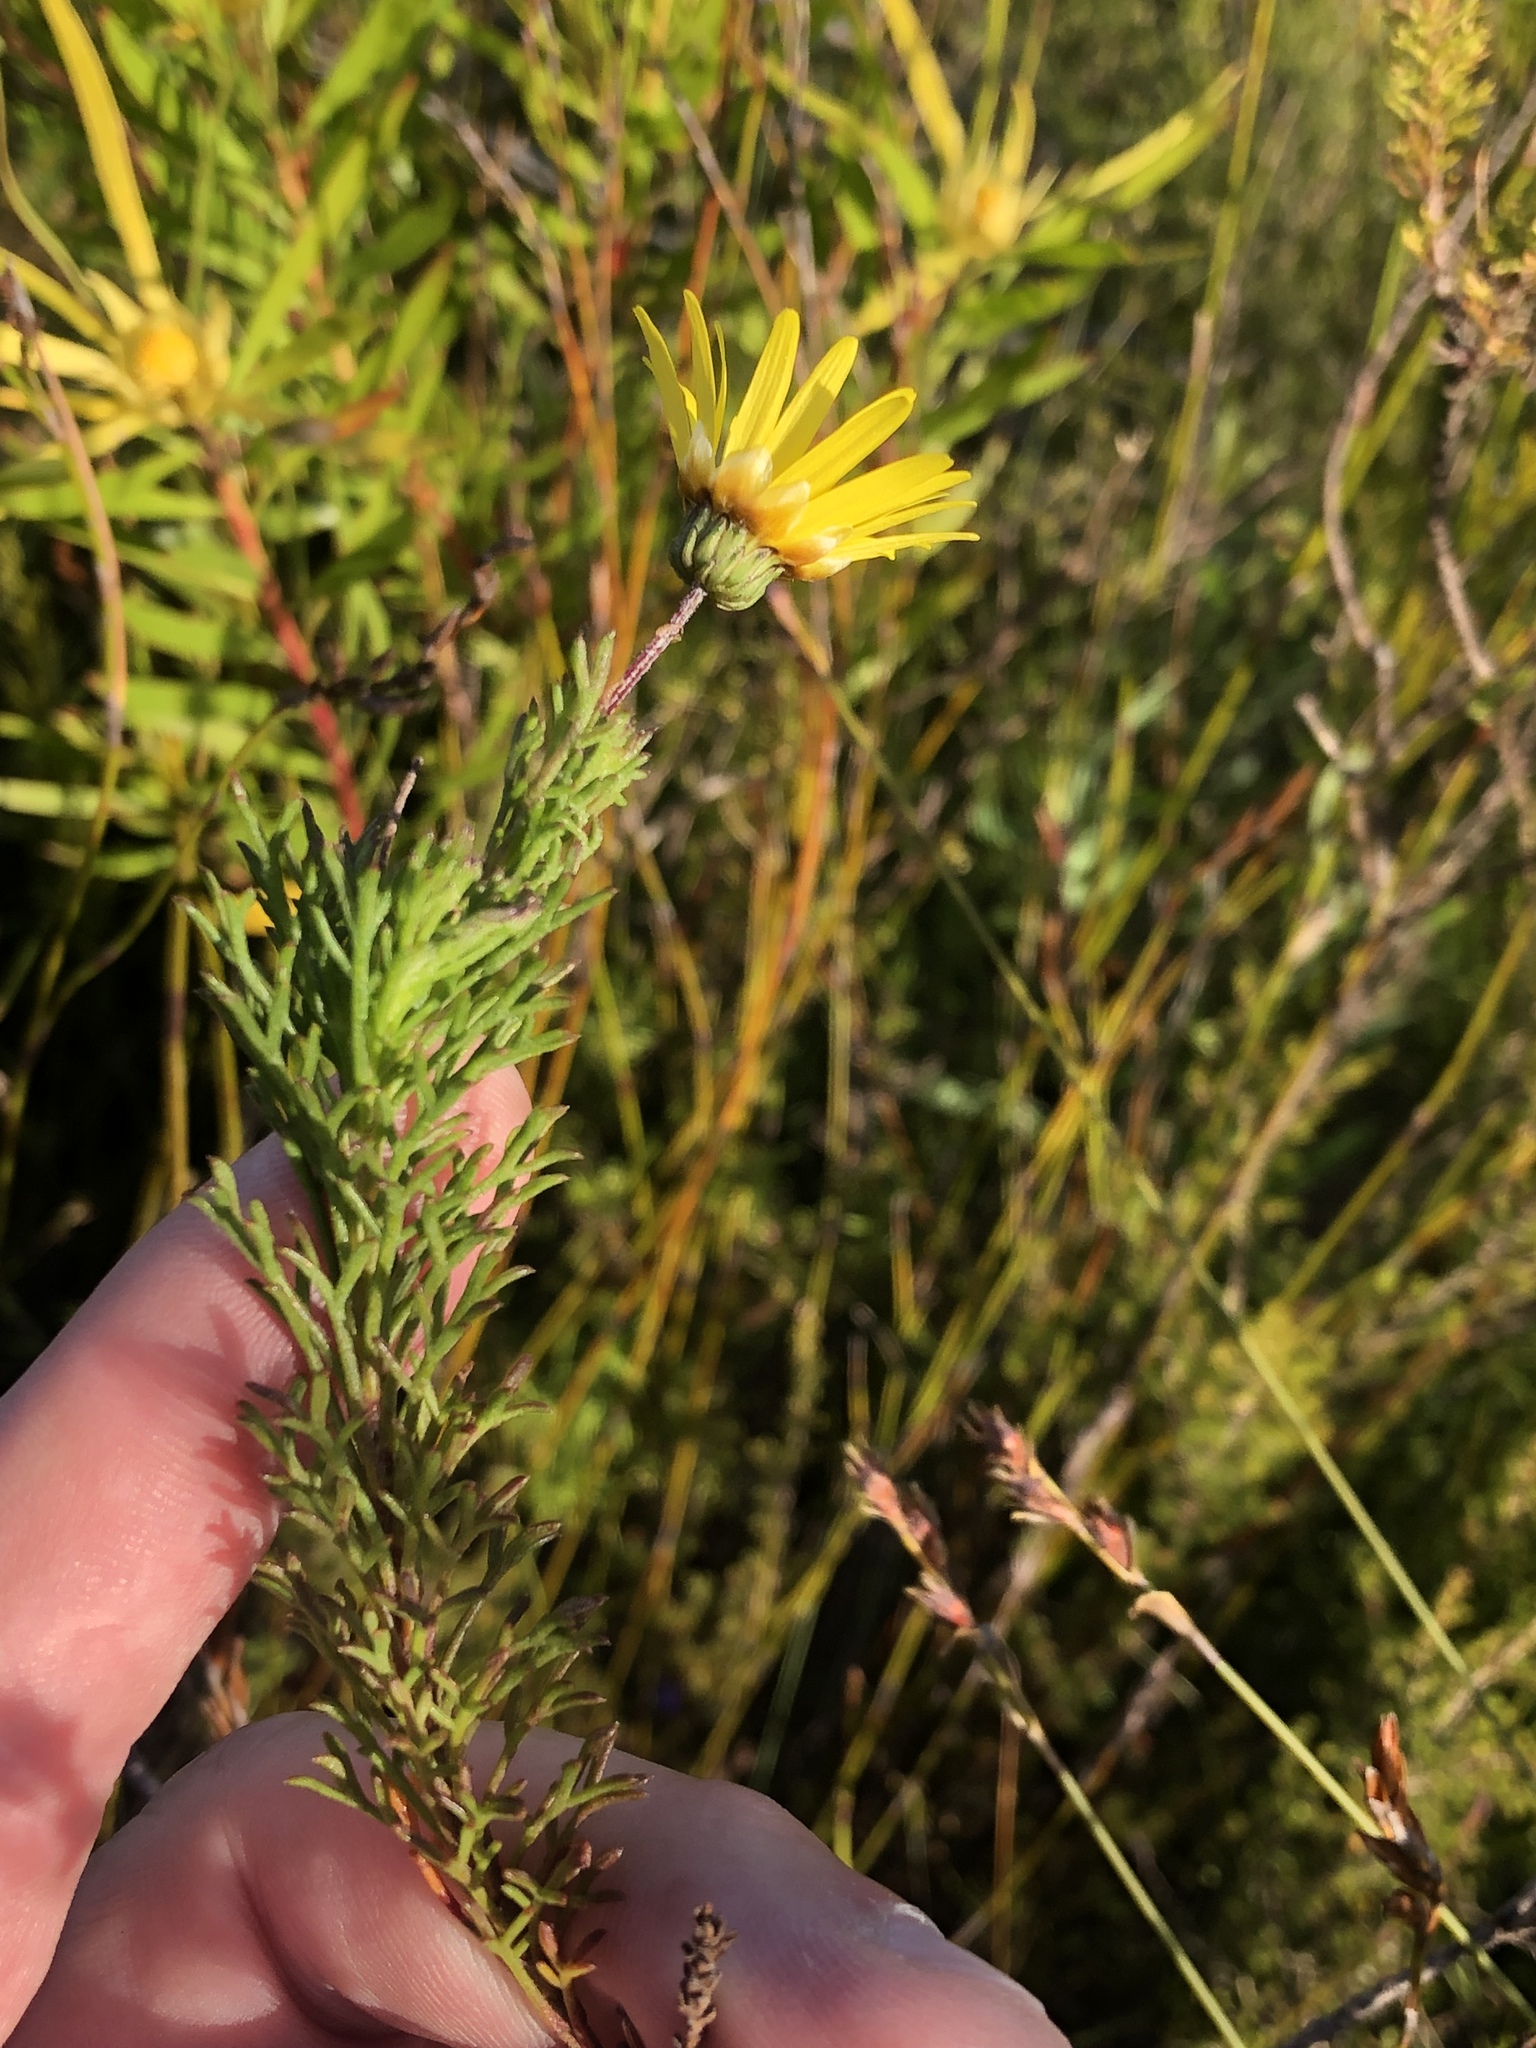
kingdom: Plantae
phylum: Tracheophyta
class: Magnoliopsida
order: Asterales
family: Asteraceae
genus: Ursinia
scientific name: Ursinia trifida
